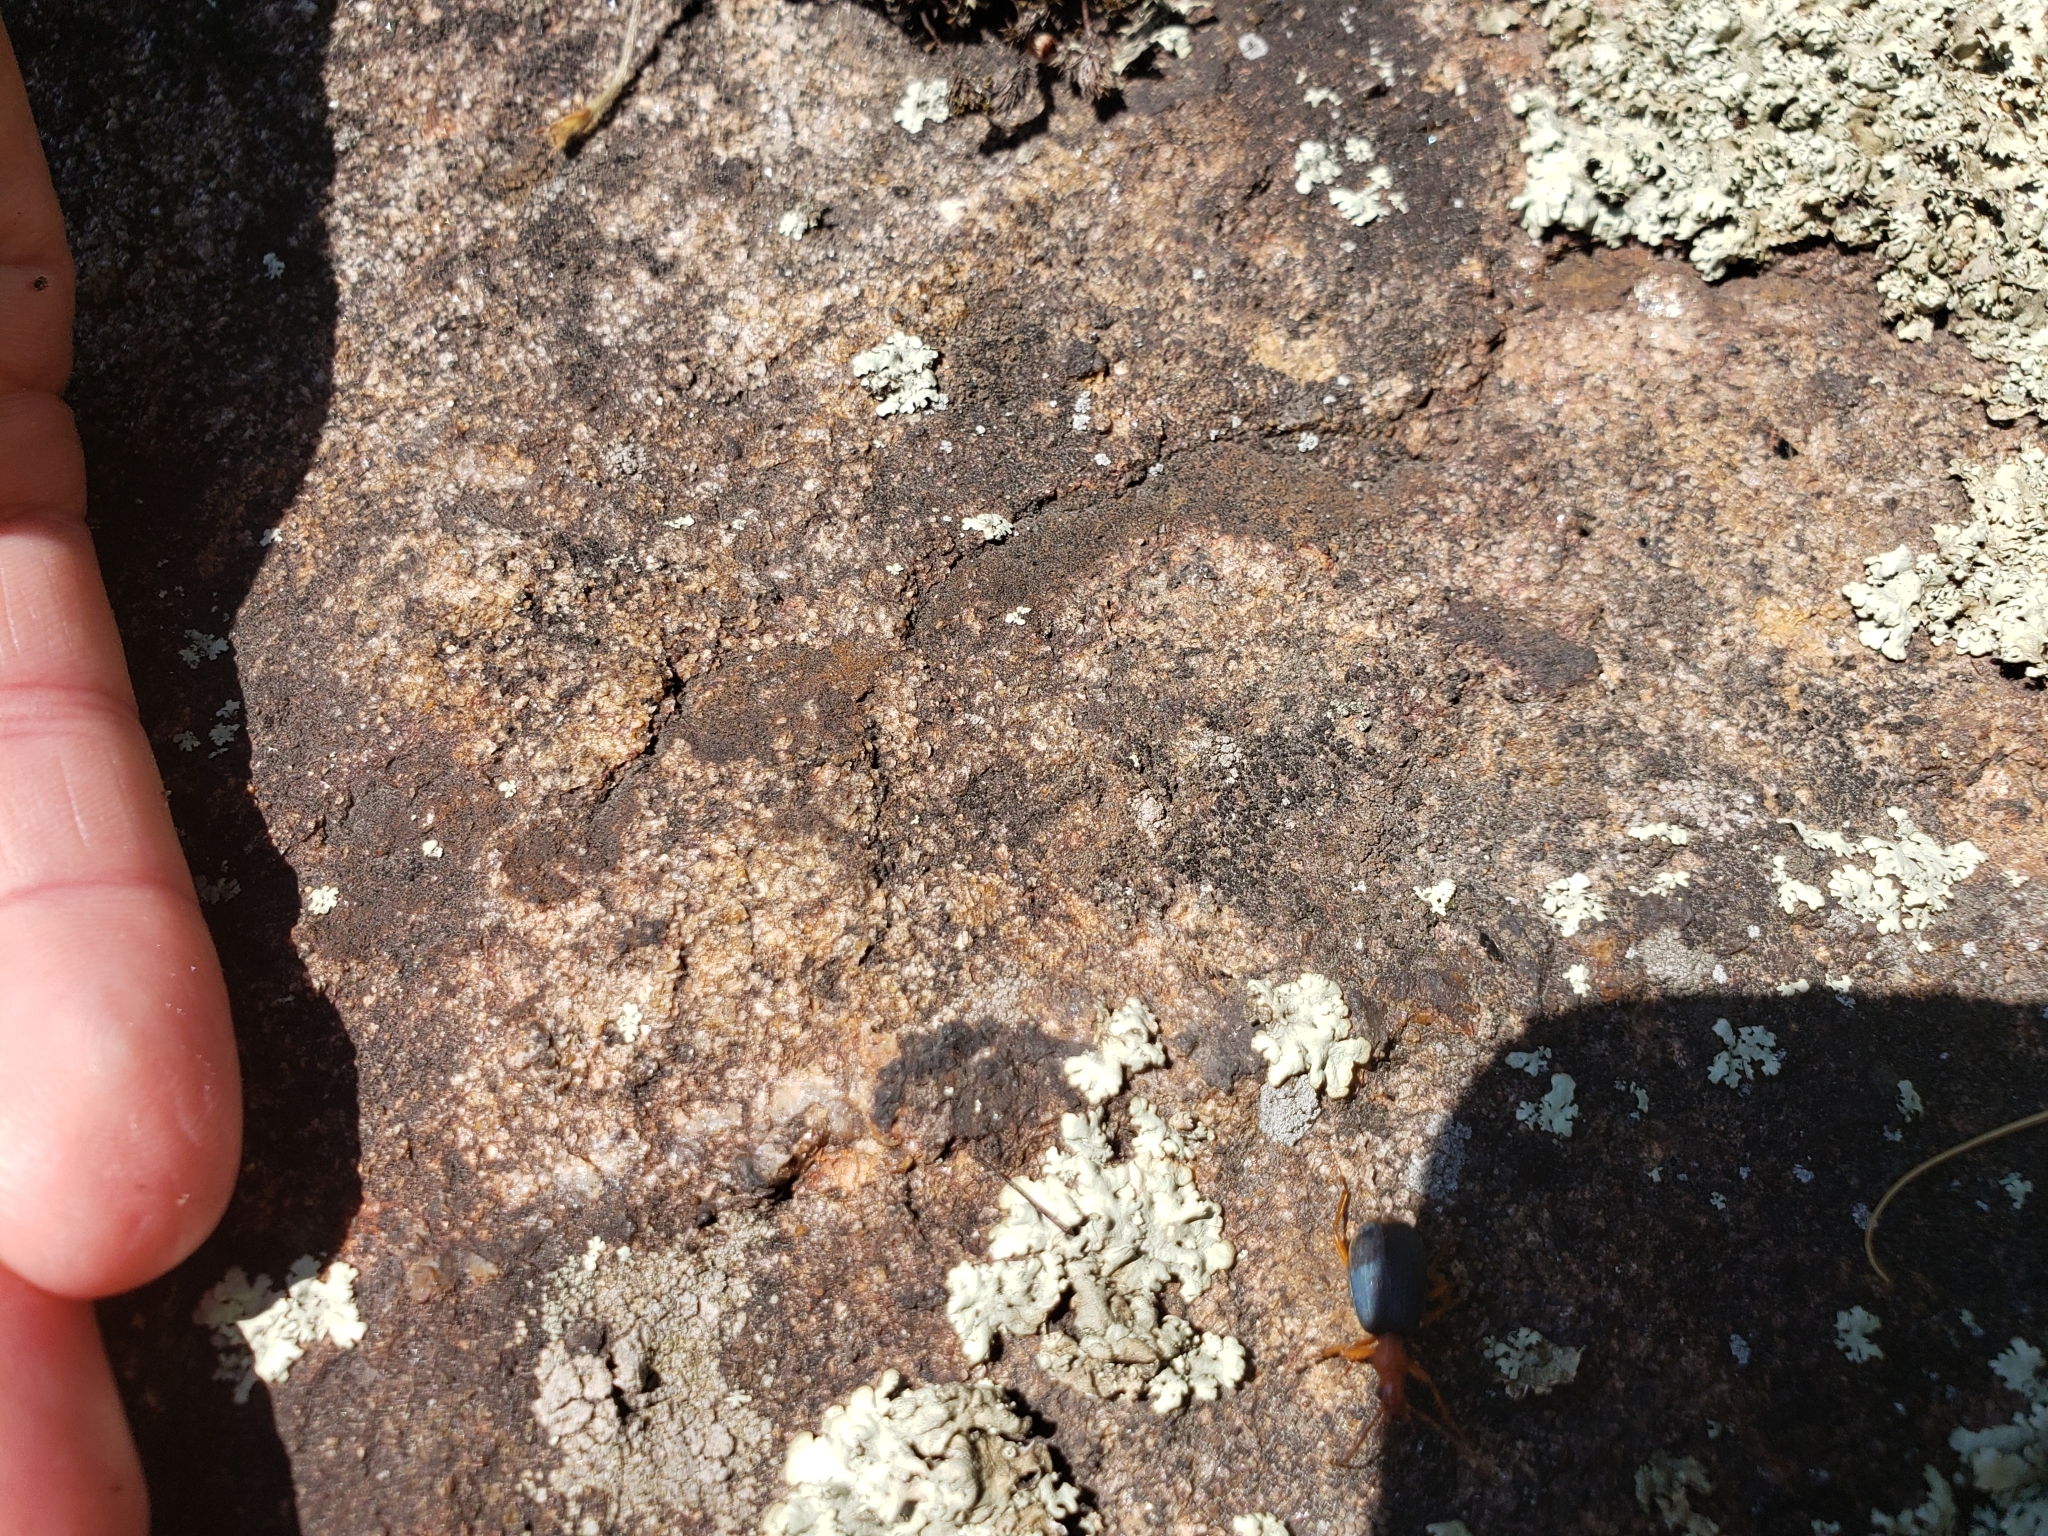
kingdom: Animalia
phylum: Arthropoda
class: Insecta
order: Coleoptera
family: Carabidae
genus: Brachinus
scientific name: Brachinus
